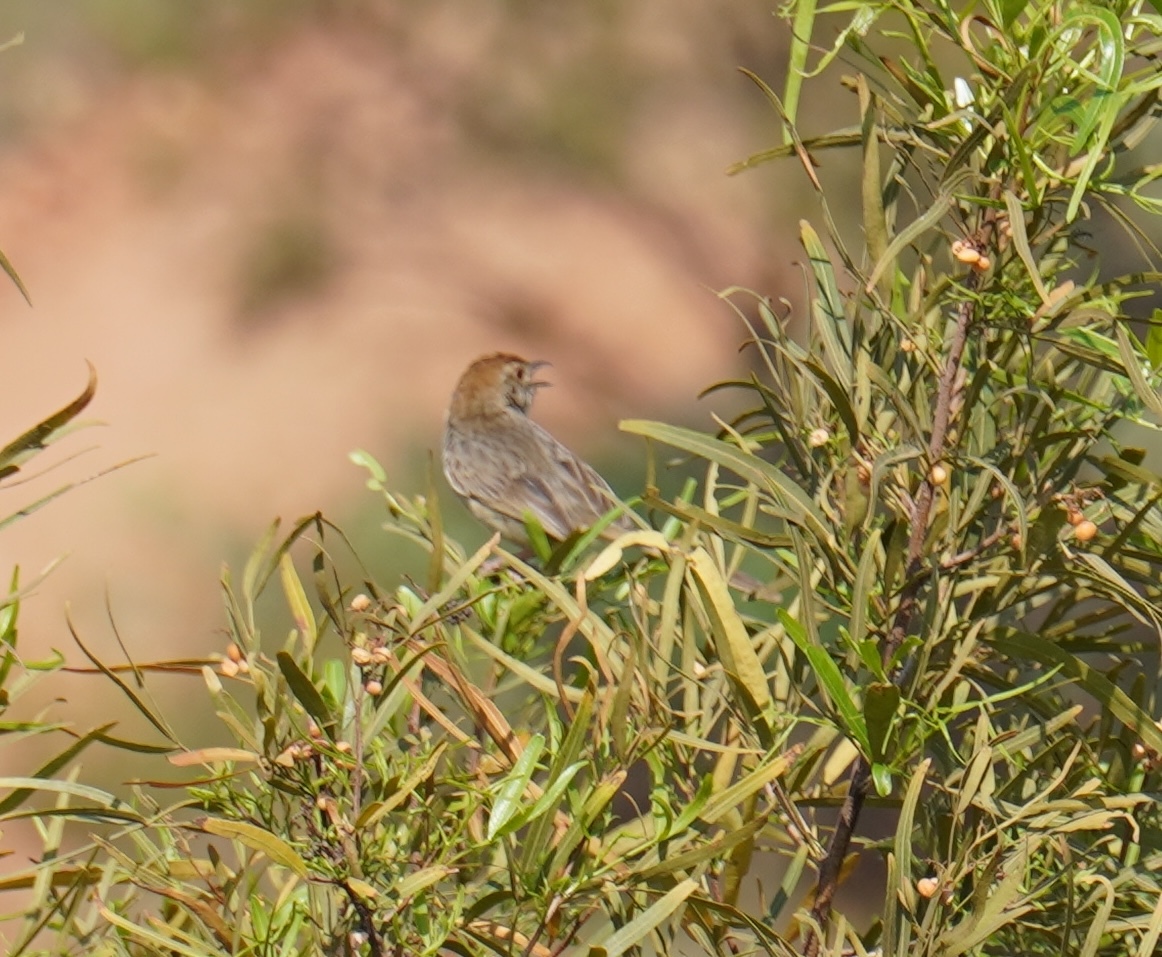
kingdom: Animalia
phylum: Chordata
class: Aves
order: Passeriformes
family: Cisticolidae
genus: Cisticola
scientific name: Cisticola fulvicapilla
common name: Neddicky
